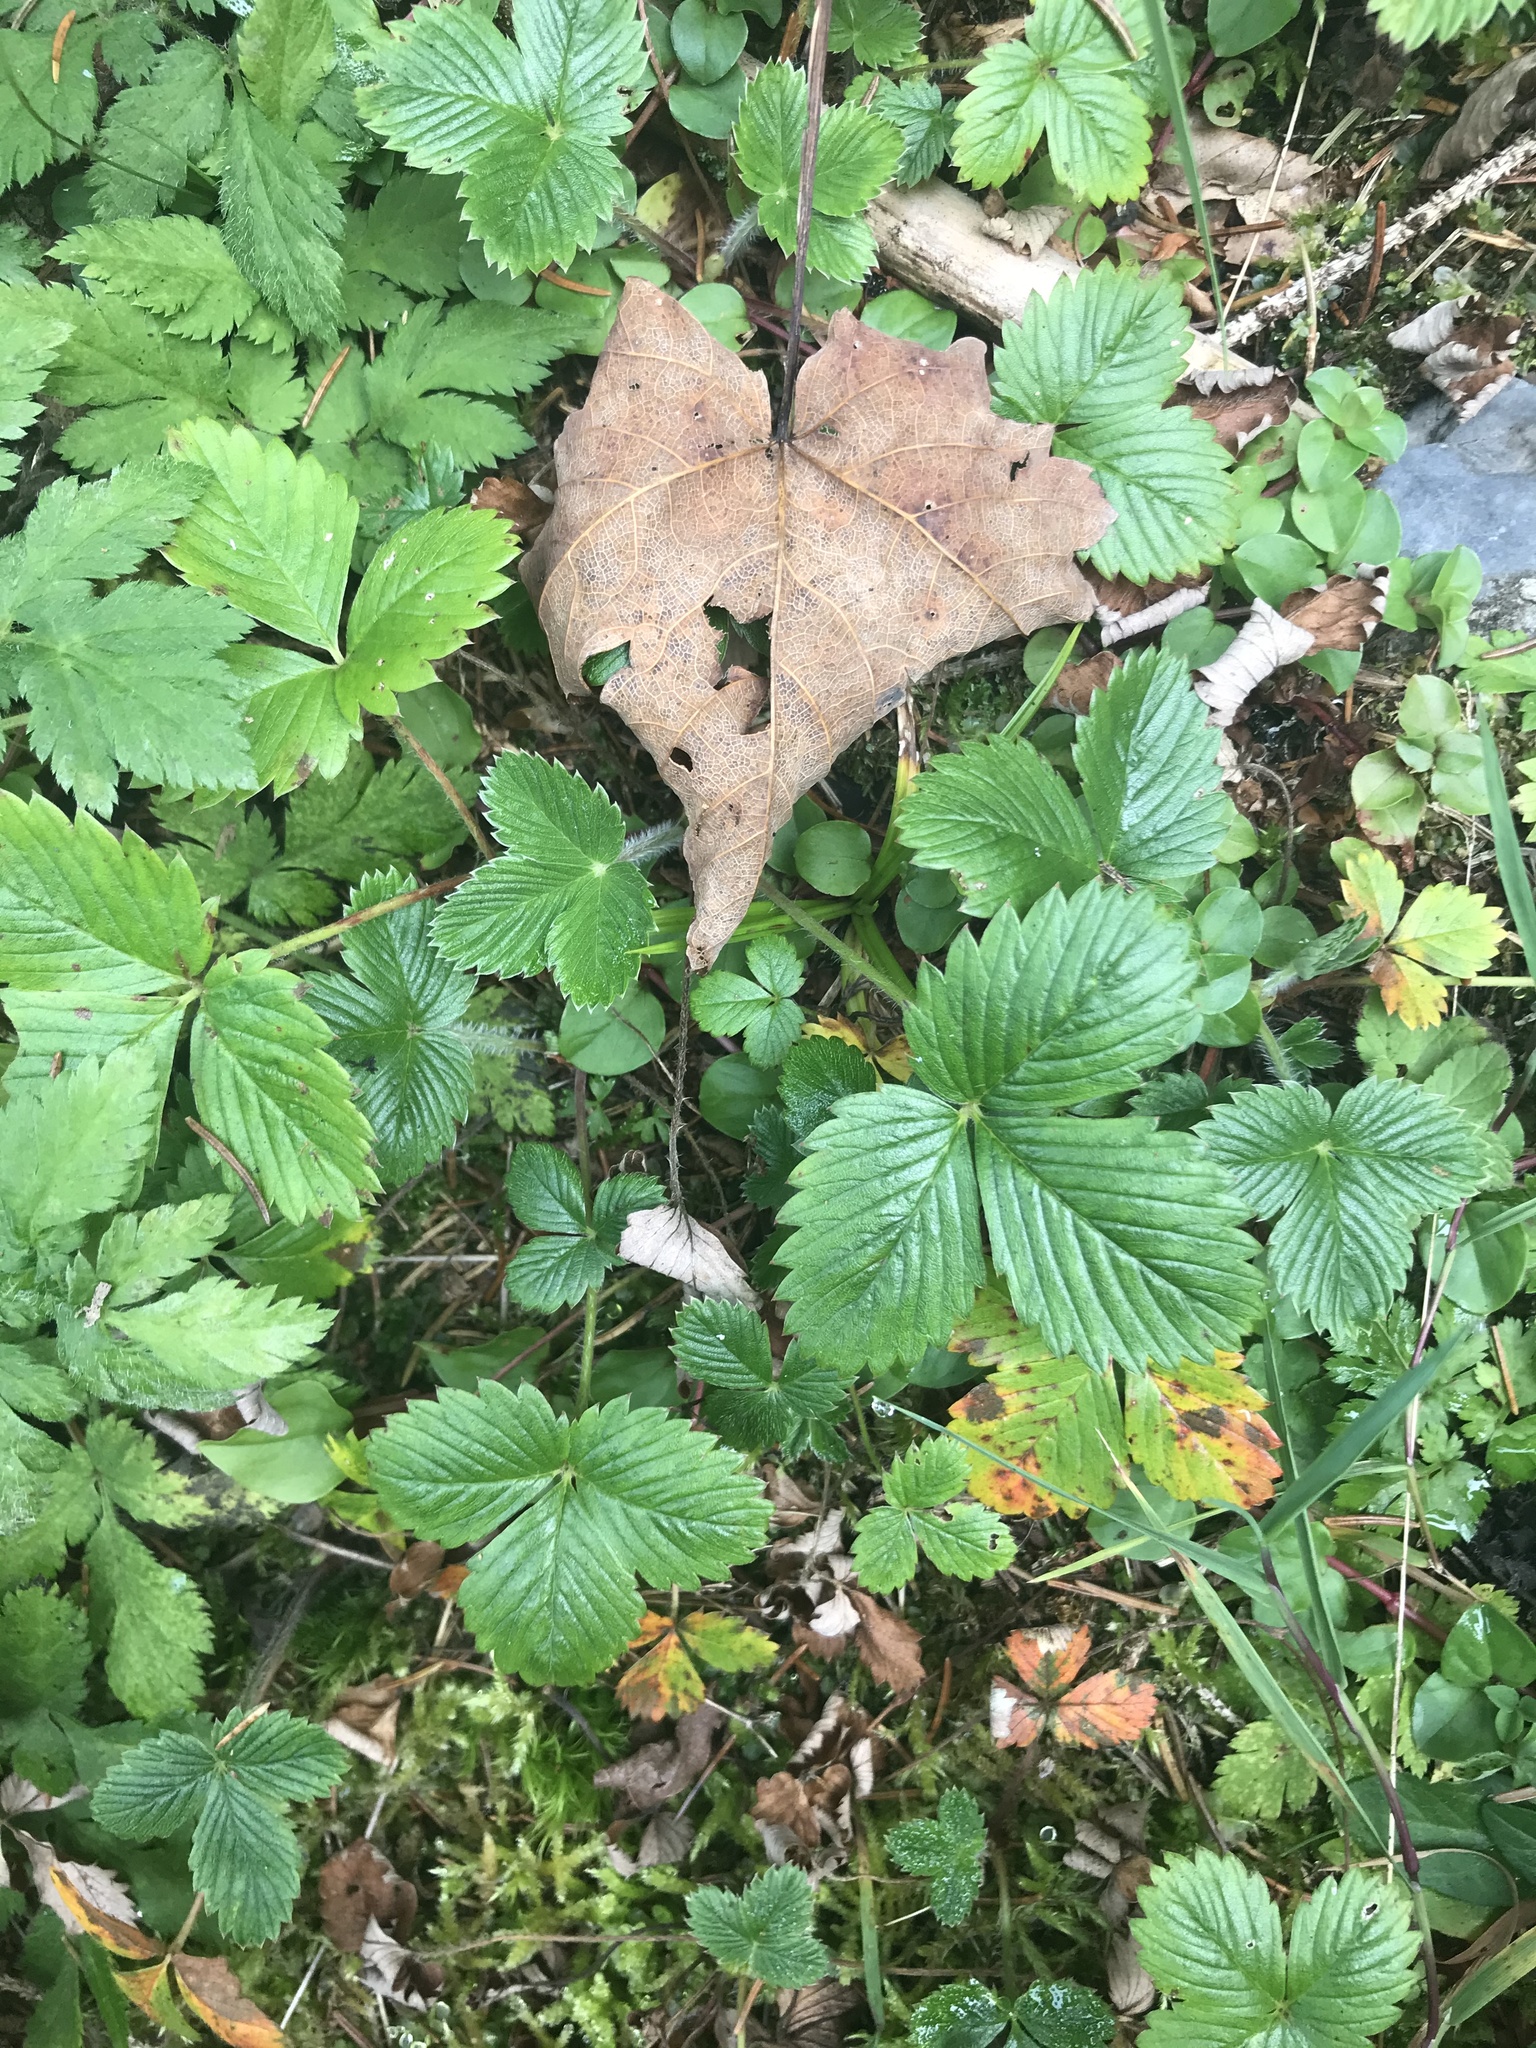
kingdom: Plantae
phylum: Tracheophyta
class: Magnoliopsida
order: Rosales
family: Rosaceae
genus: Fragaria
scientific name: Fragaria vesca
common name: Wild strawberry
